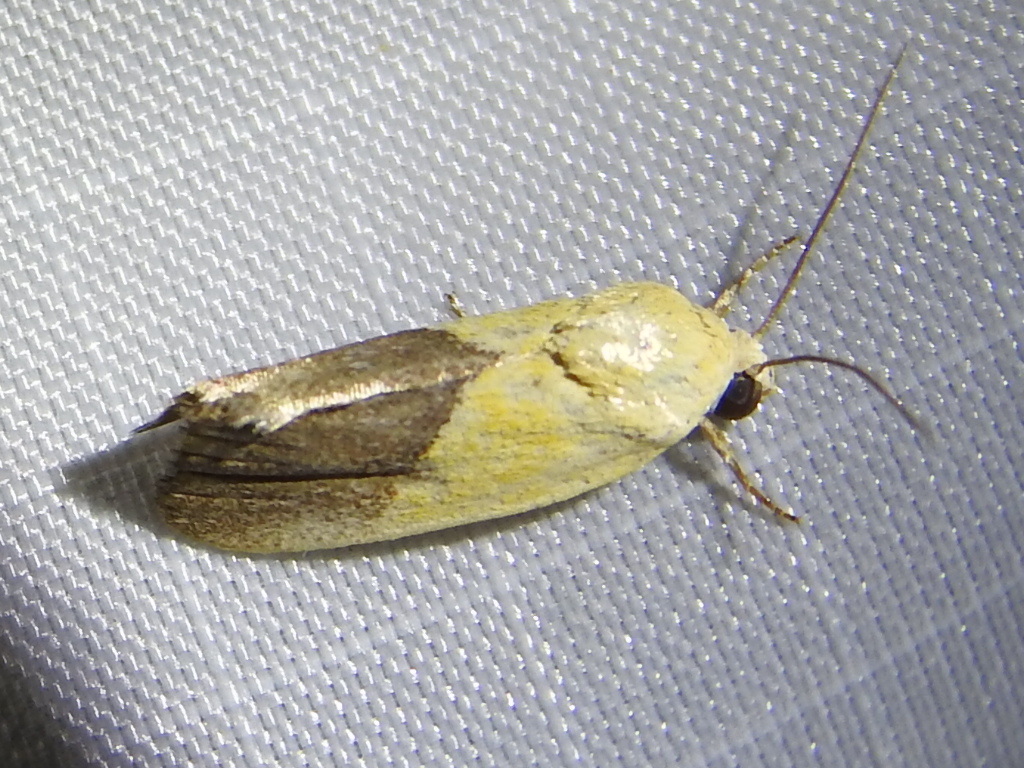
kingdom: Animalia
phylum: Arthropoda
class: Insecta
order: Lepidoptera
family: Noctuidae
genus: Acontia
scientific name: Acontia semiflava
